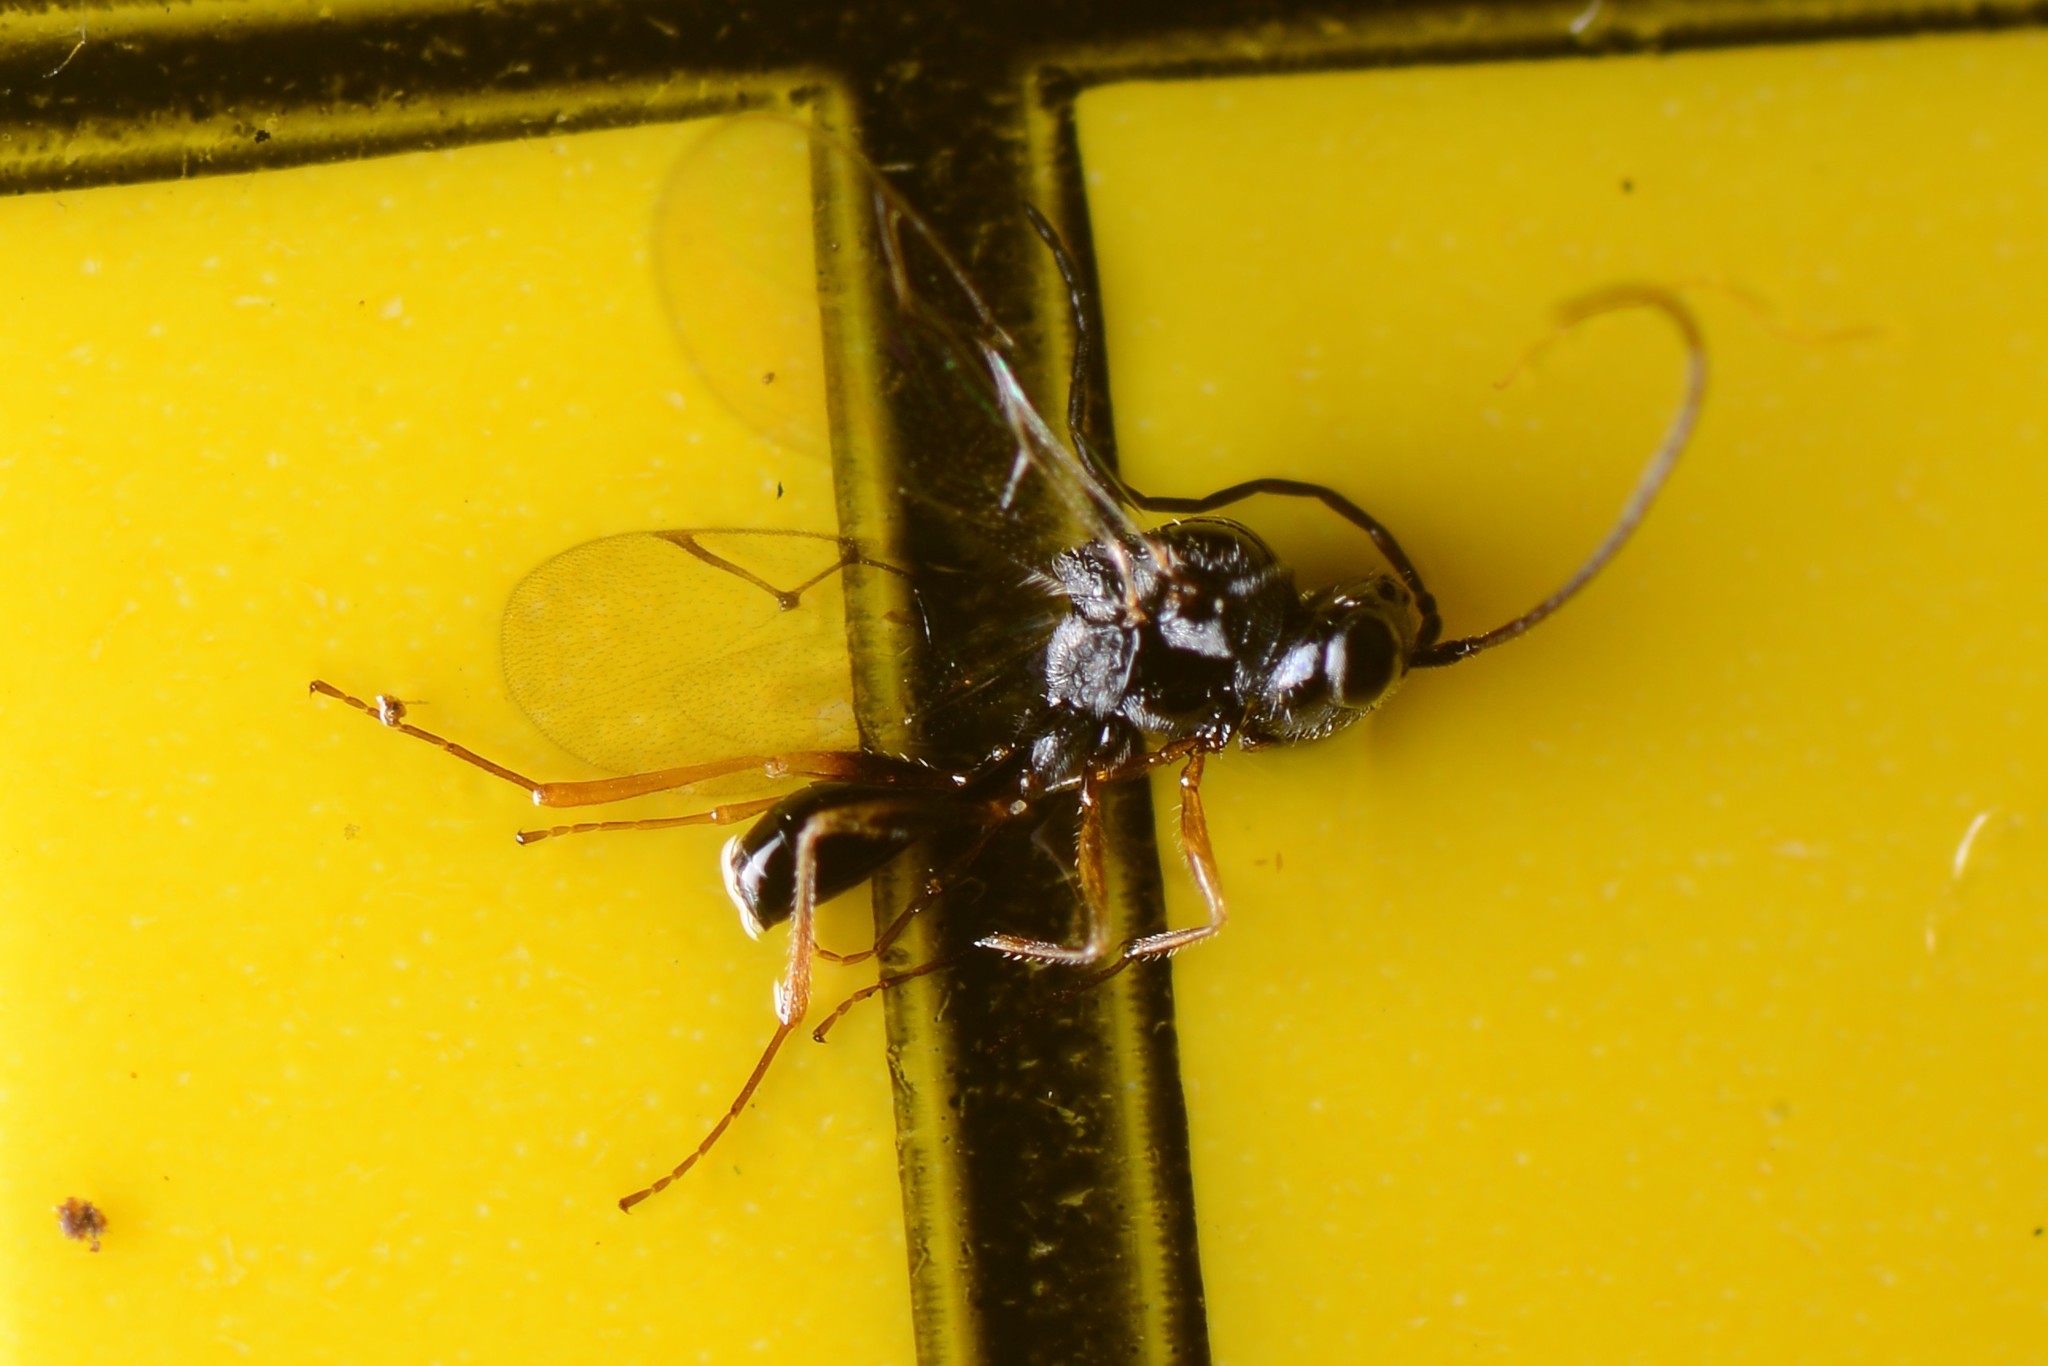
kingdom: Animalia
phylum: Arthropoda
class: Insecta
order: Hymenoptera
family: Figitidae
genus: Anacharis
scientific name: Anacharis zealandica
